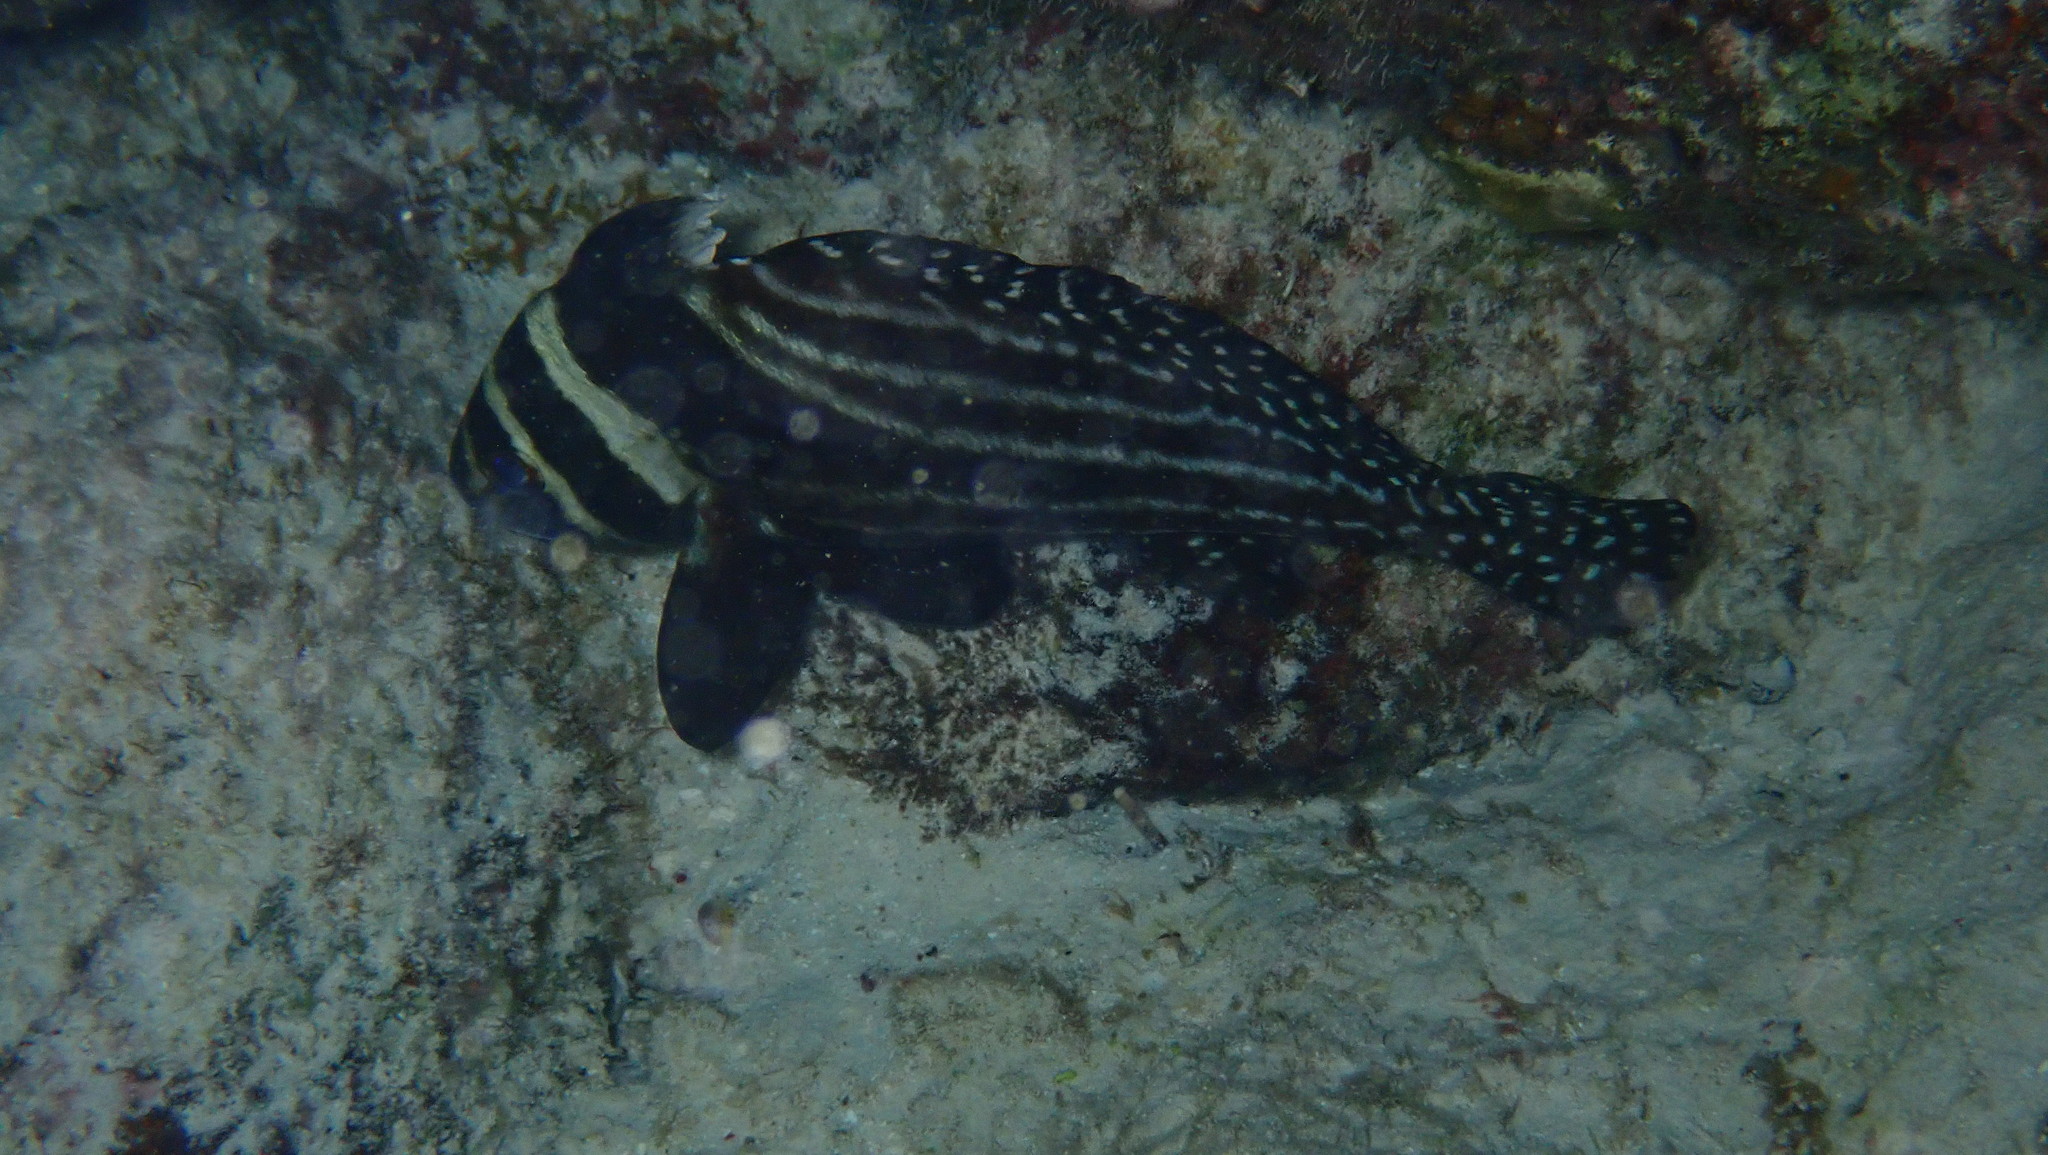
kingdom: Animalia
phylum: Chordata
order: Perciformes
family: Sciaenidae
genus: Equetus
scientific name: Equetus punctatus
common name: Spotted drum
